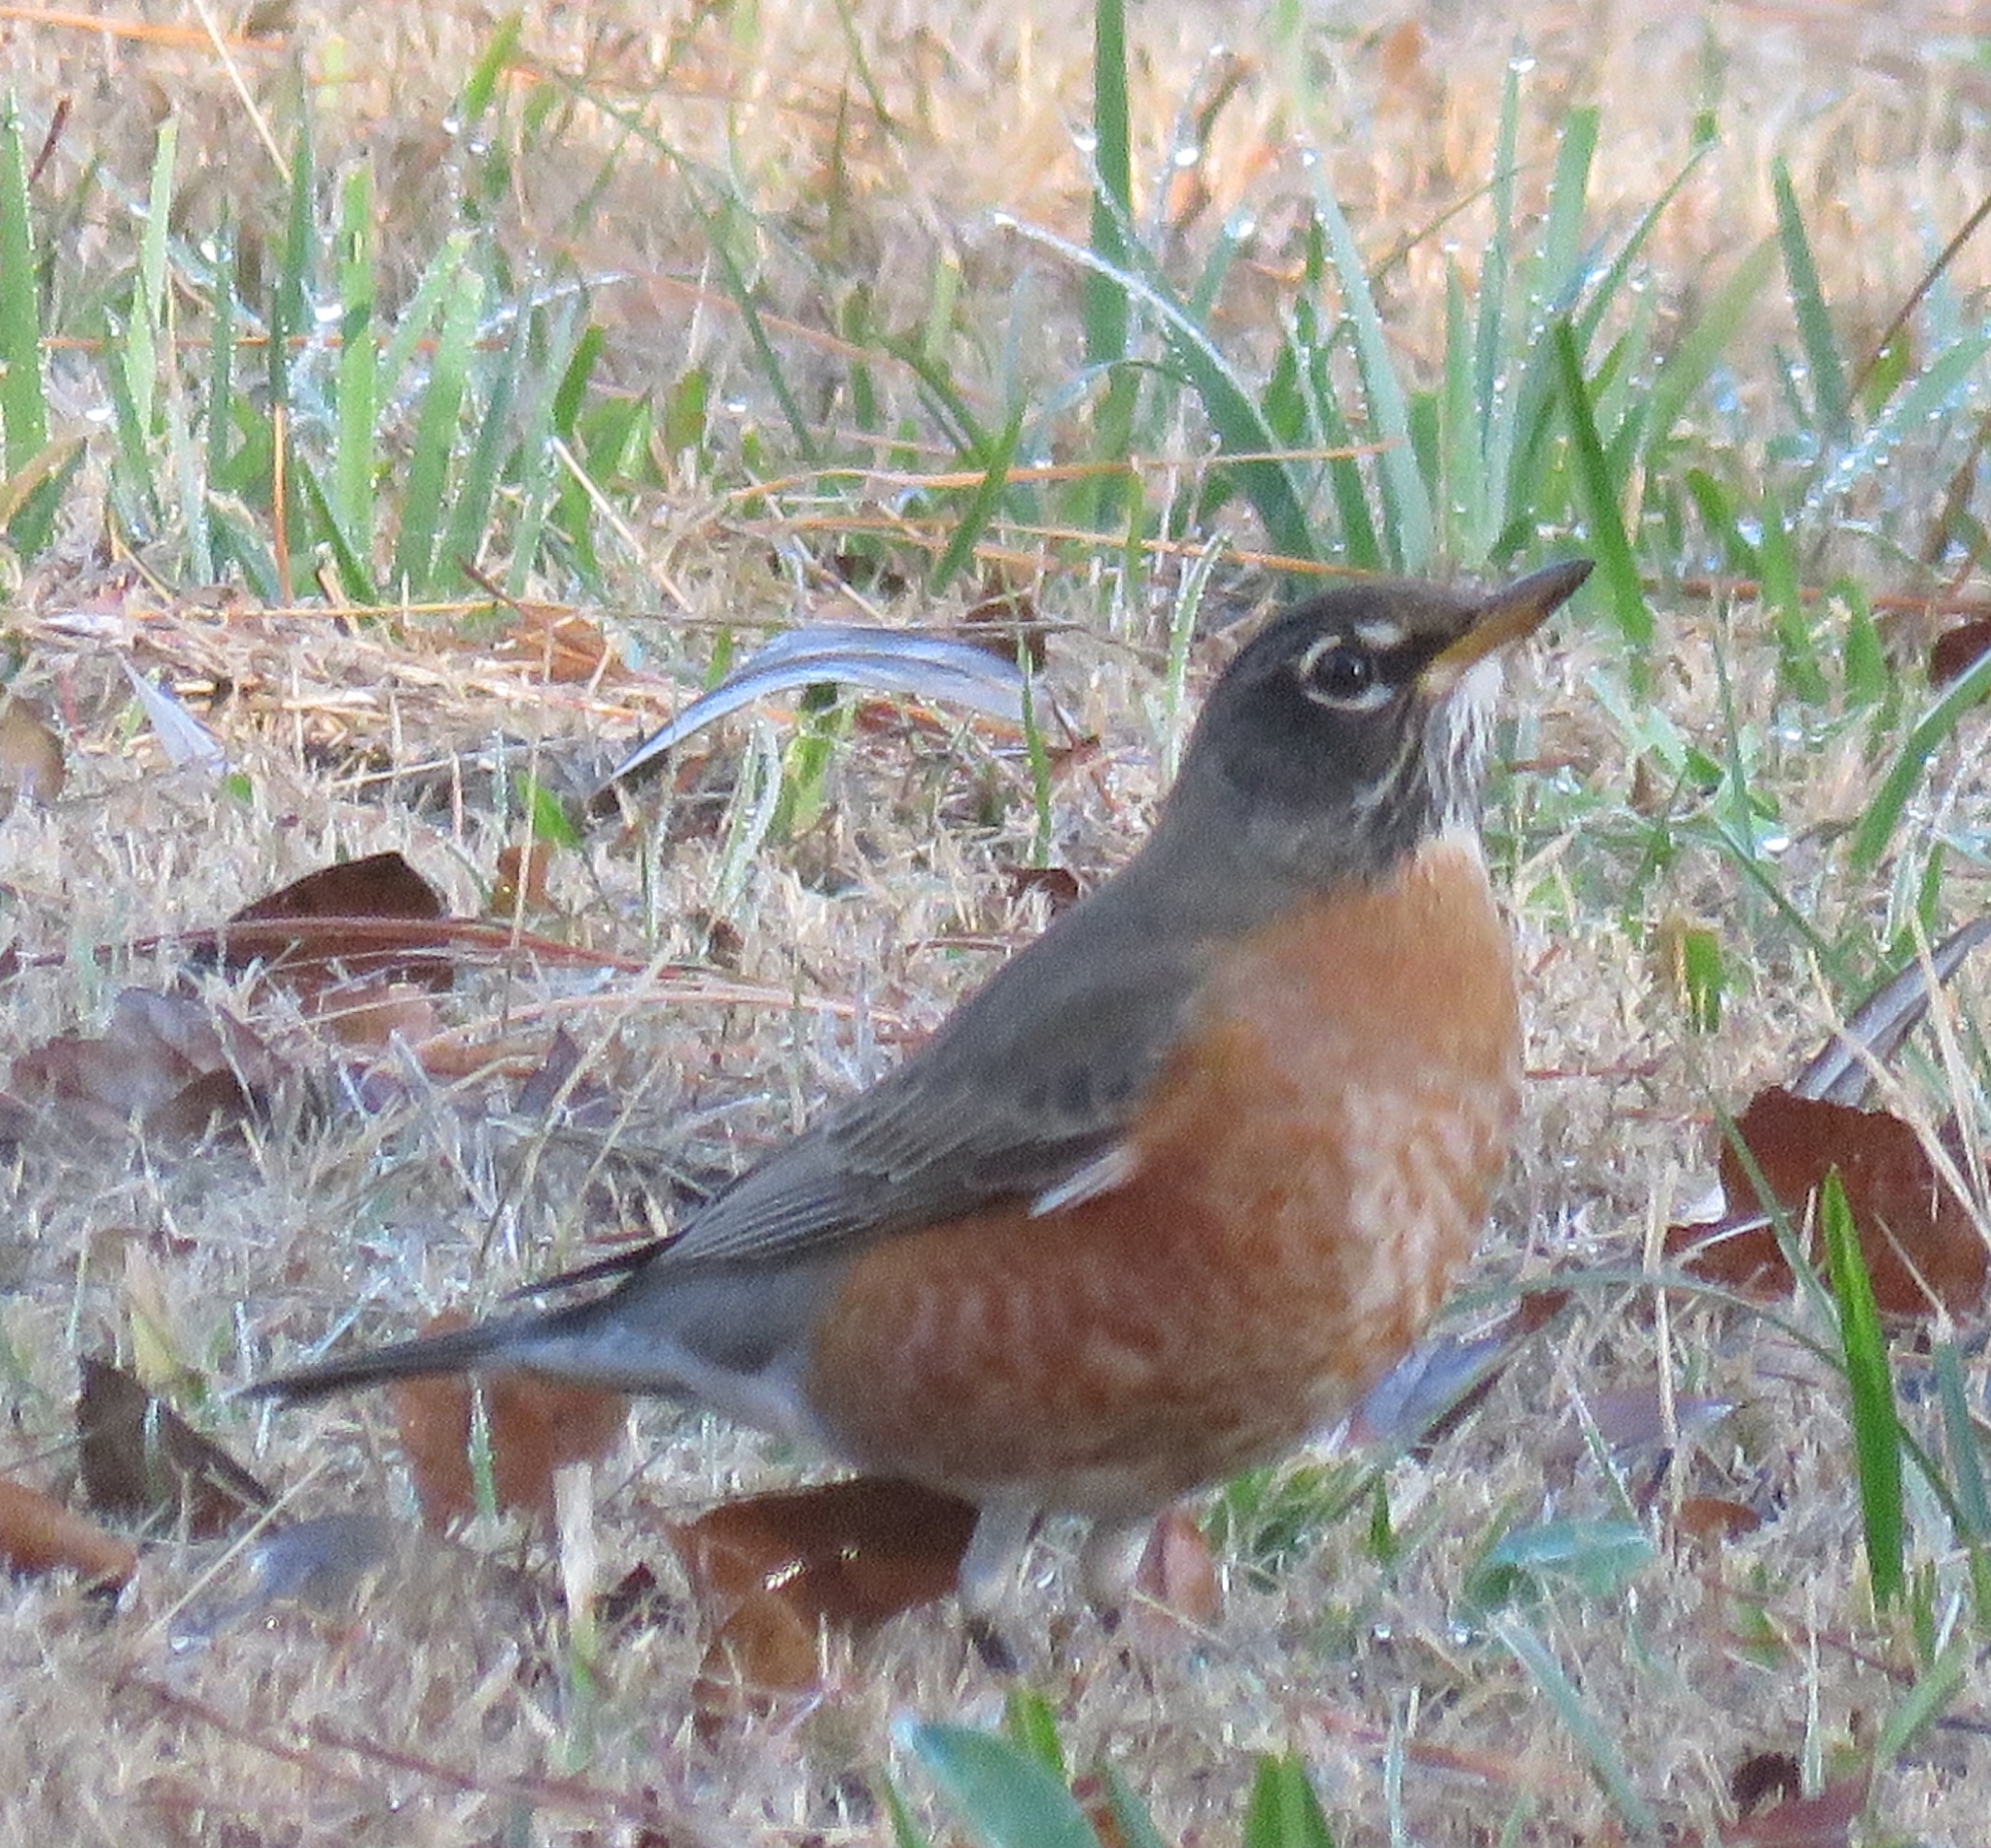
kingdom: Animalia
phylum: Chordata
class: Aves
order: Passeriformes
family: Turdidae
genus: Turdus
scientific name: Turdus migratorius
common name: American robin
